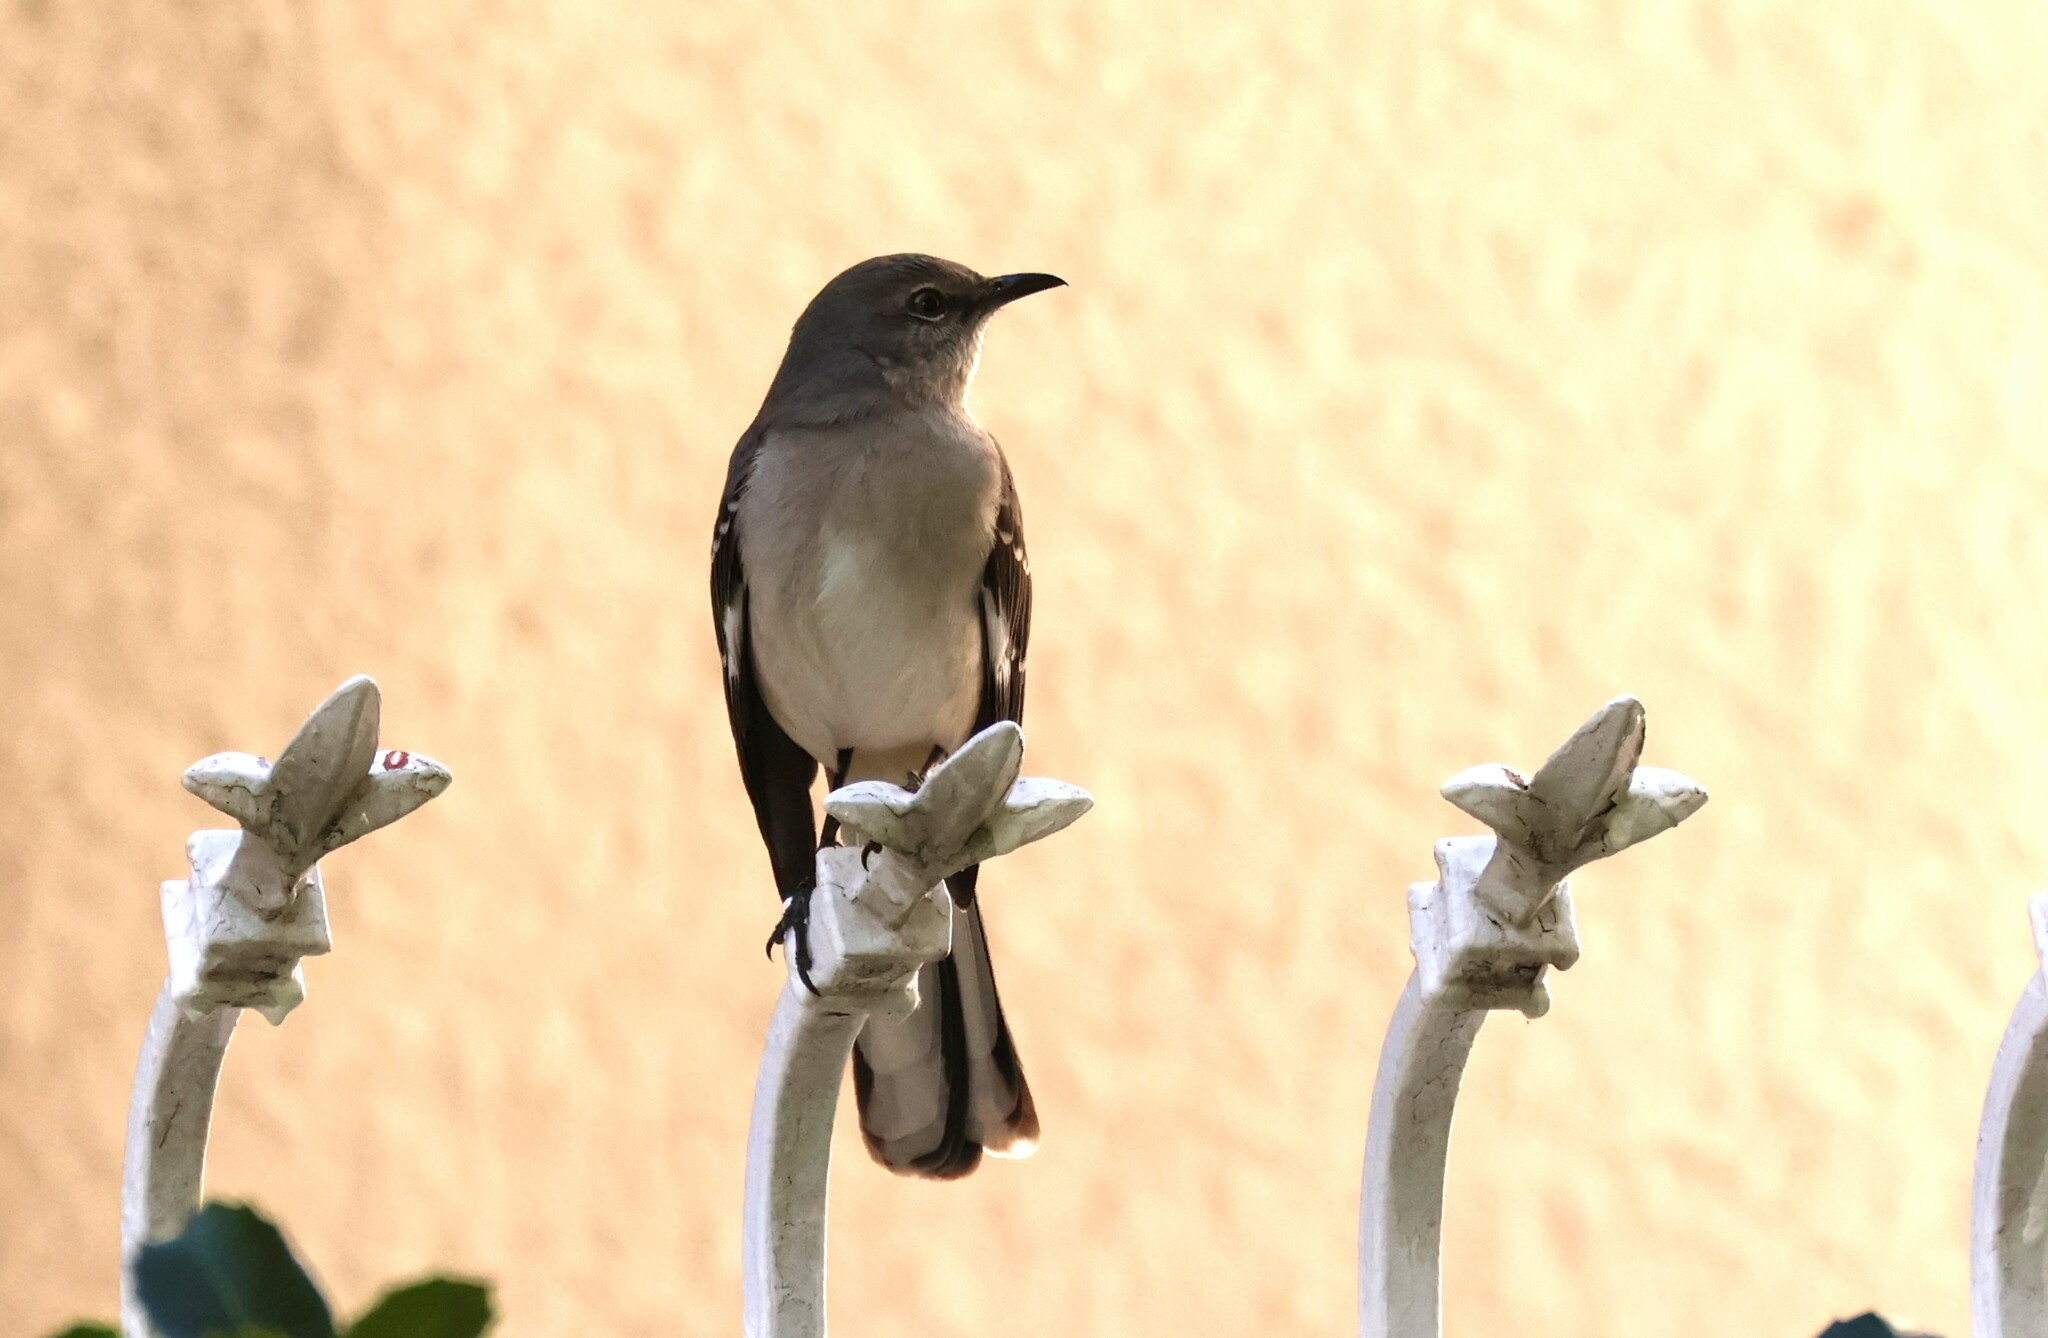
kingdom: Animalia
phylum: Chordata
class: Aves
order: Passeriformes
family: Mimidae
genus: Mimus
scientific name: Mimus polyglottos
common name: Northern mockingbird
